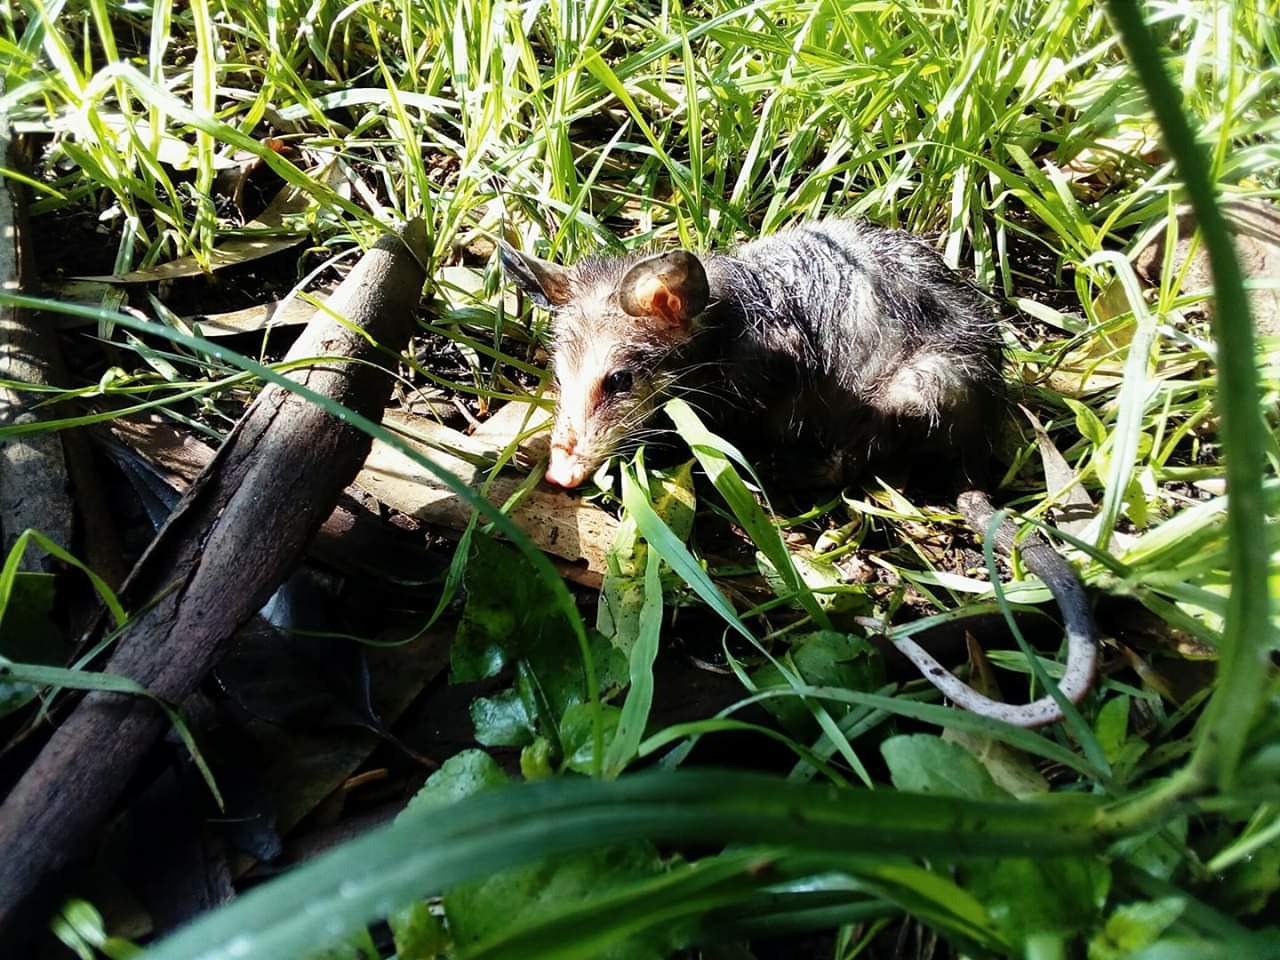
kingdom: Animalia
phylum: Chordata
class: Mammalia
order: Didelphimorphia
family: Didelphidae
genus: Didelphis
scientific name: Didelphis virginiana
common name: Virginia opossum
